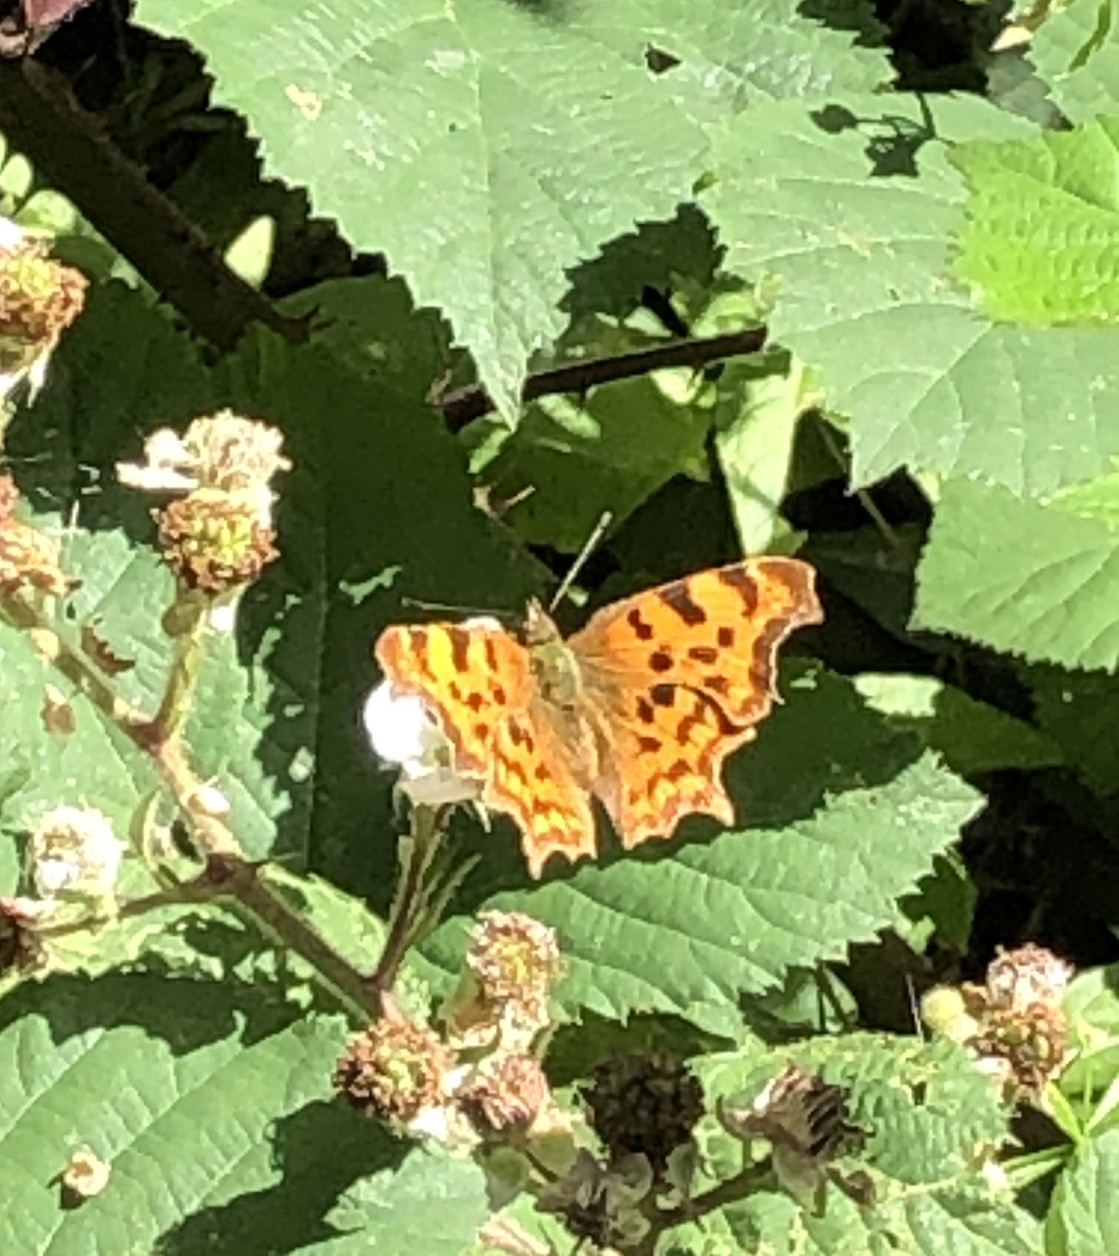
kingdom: Animalia
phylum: Arthropoda
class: Insecta
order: Lepidoptera
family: Nymphalidae
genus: Polygonia
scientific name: Polygonia c-album
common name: Comma
